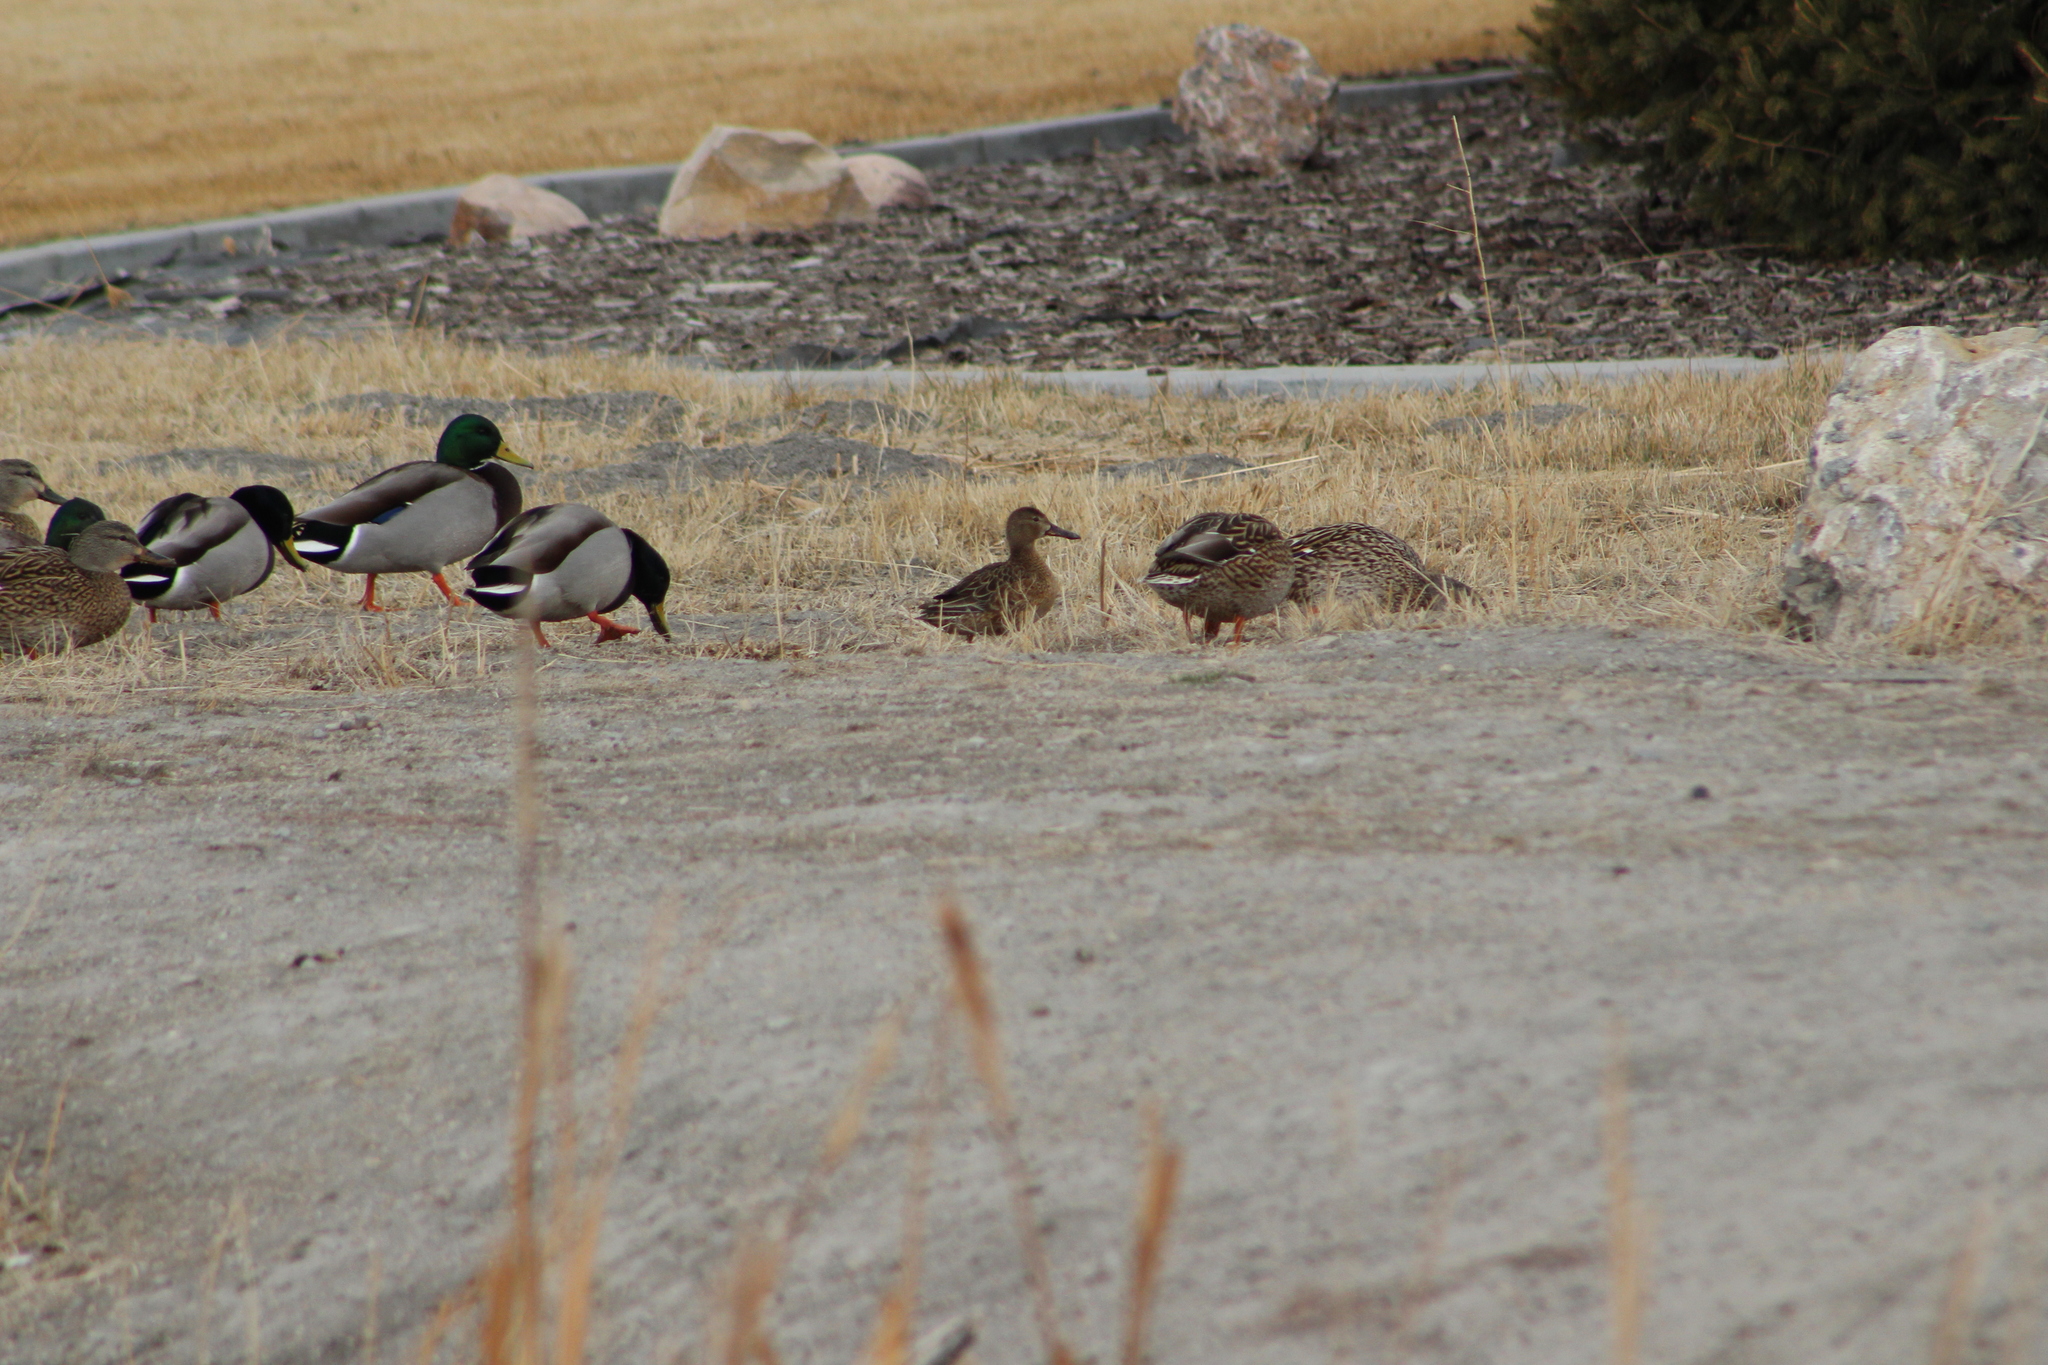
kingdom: Animalia
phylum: Chordata
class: Aves
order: Anseriformes
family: Anatidae
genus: Spatula
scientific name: Spatula cyanoptera
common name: Cinnamon teal
